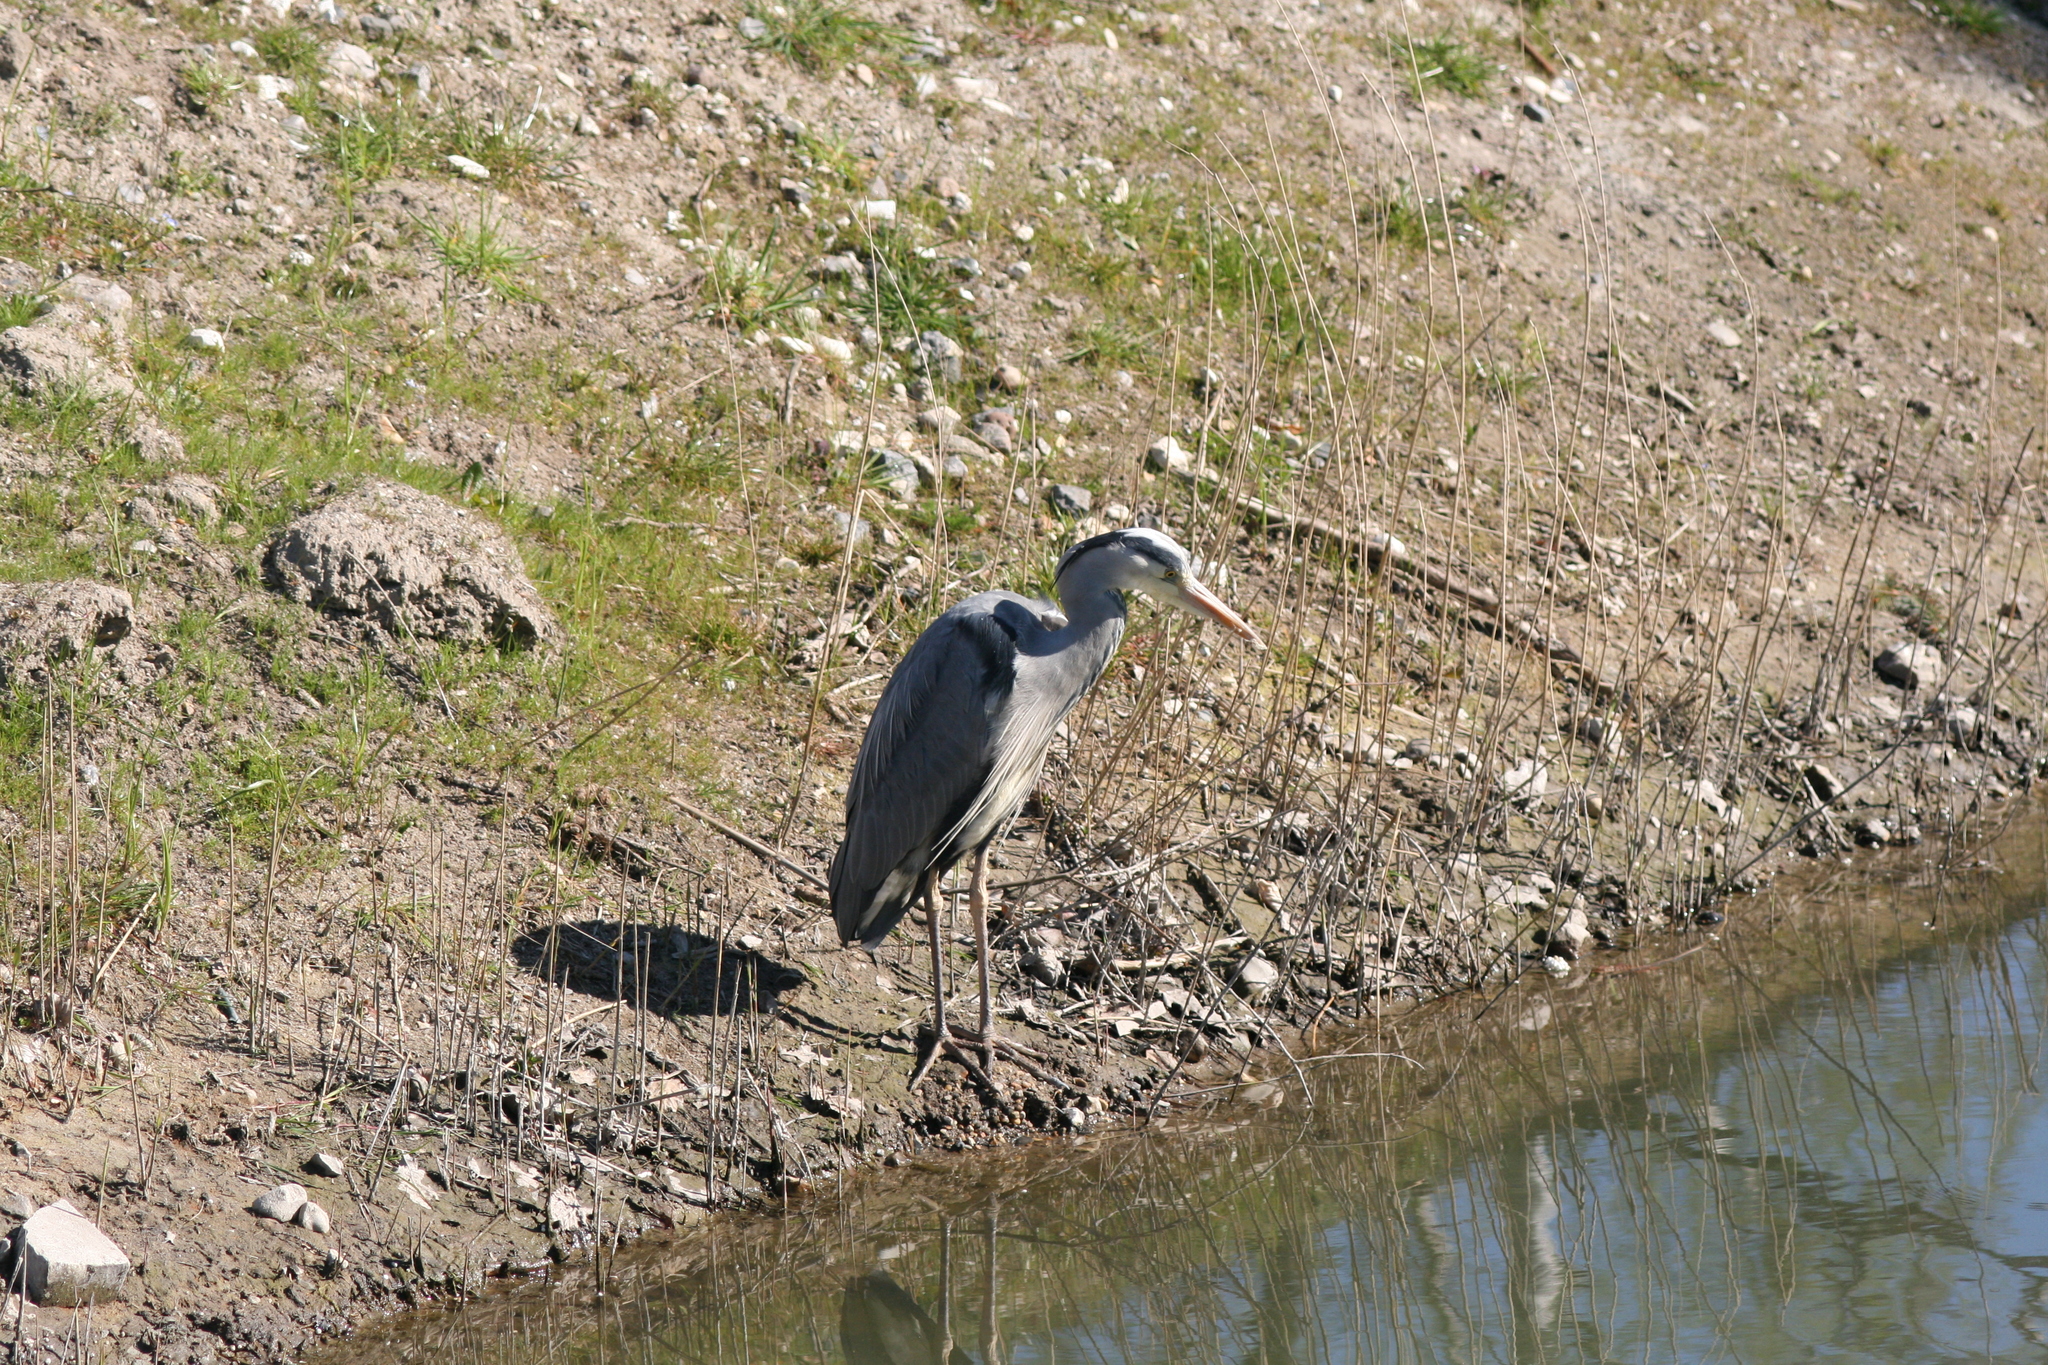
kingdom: Animalia
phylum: Chordata
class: Aves
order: Pelecaniformes
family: Ardeidae
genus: Ardea
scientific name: Ardea cinerea
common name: Grey heron
